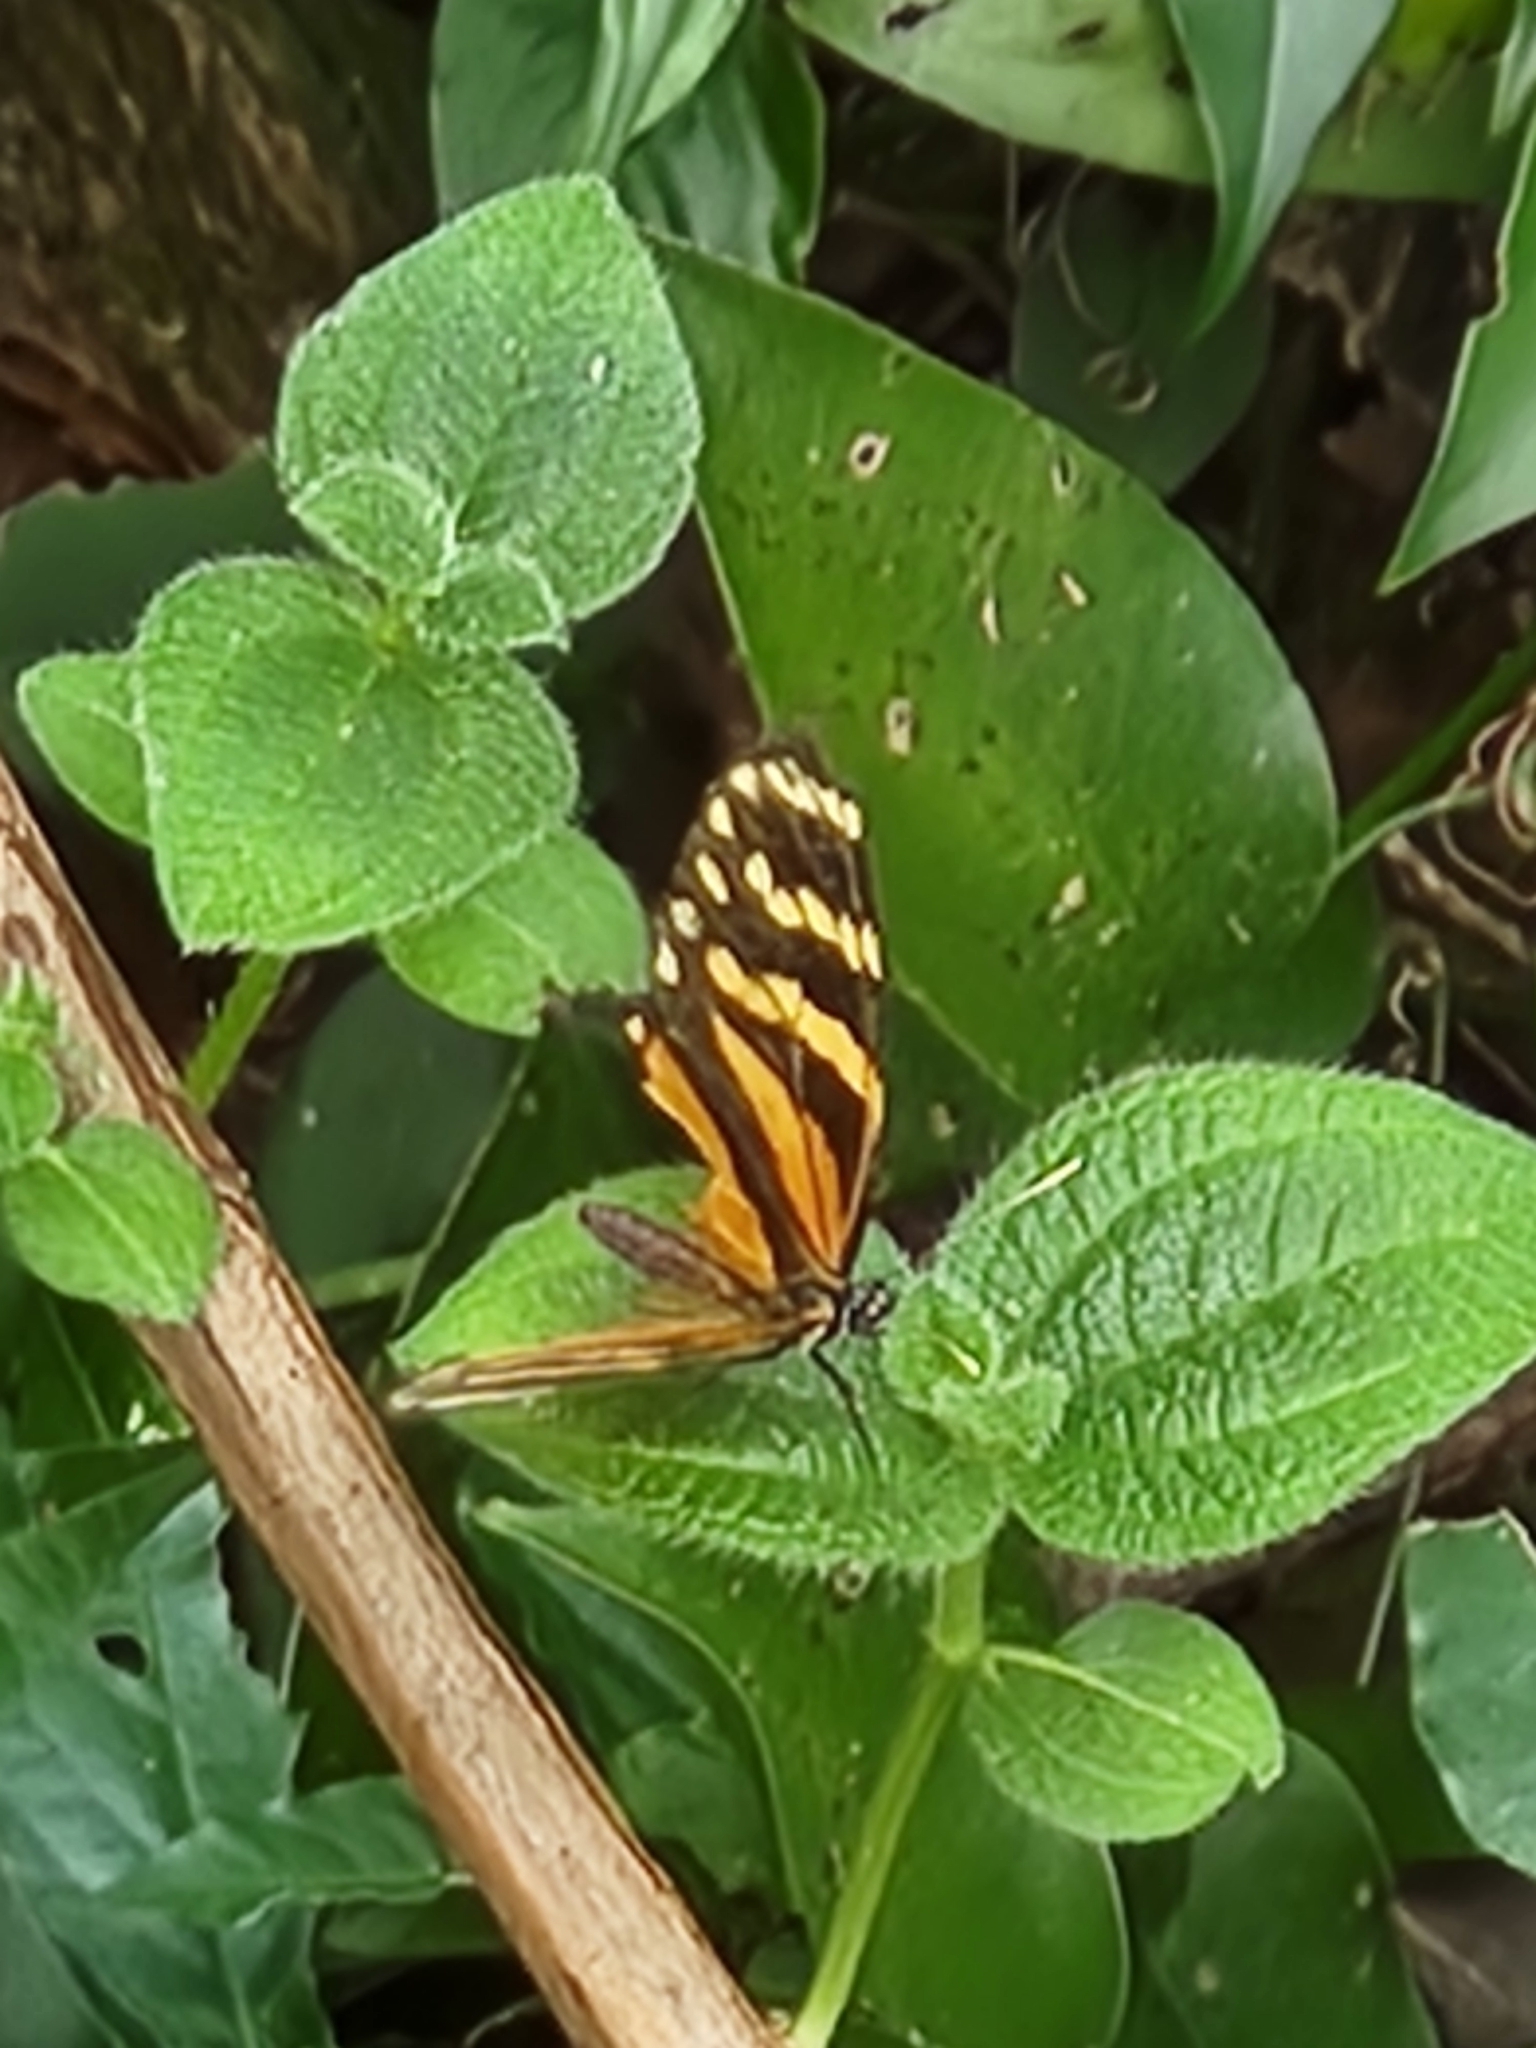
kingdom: Animalia
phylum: Arthropoda
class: Insecta
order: Lepidoptera
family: Nymphalidae
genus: Eresia
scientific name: Eresia ithomioides
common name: Variable crescent
